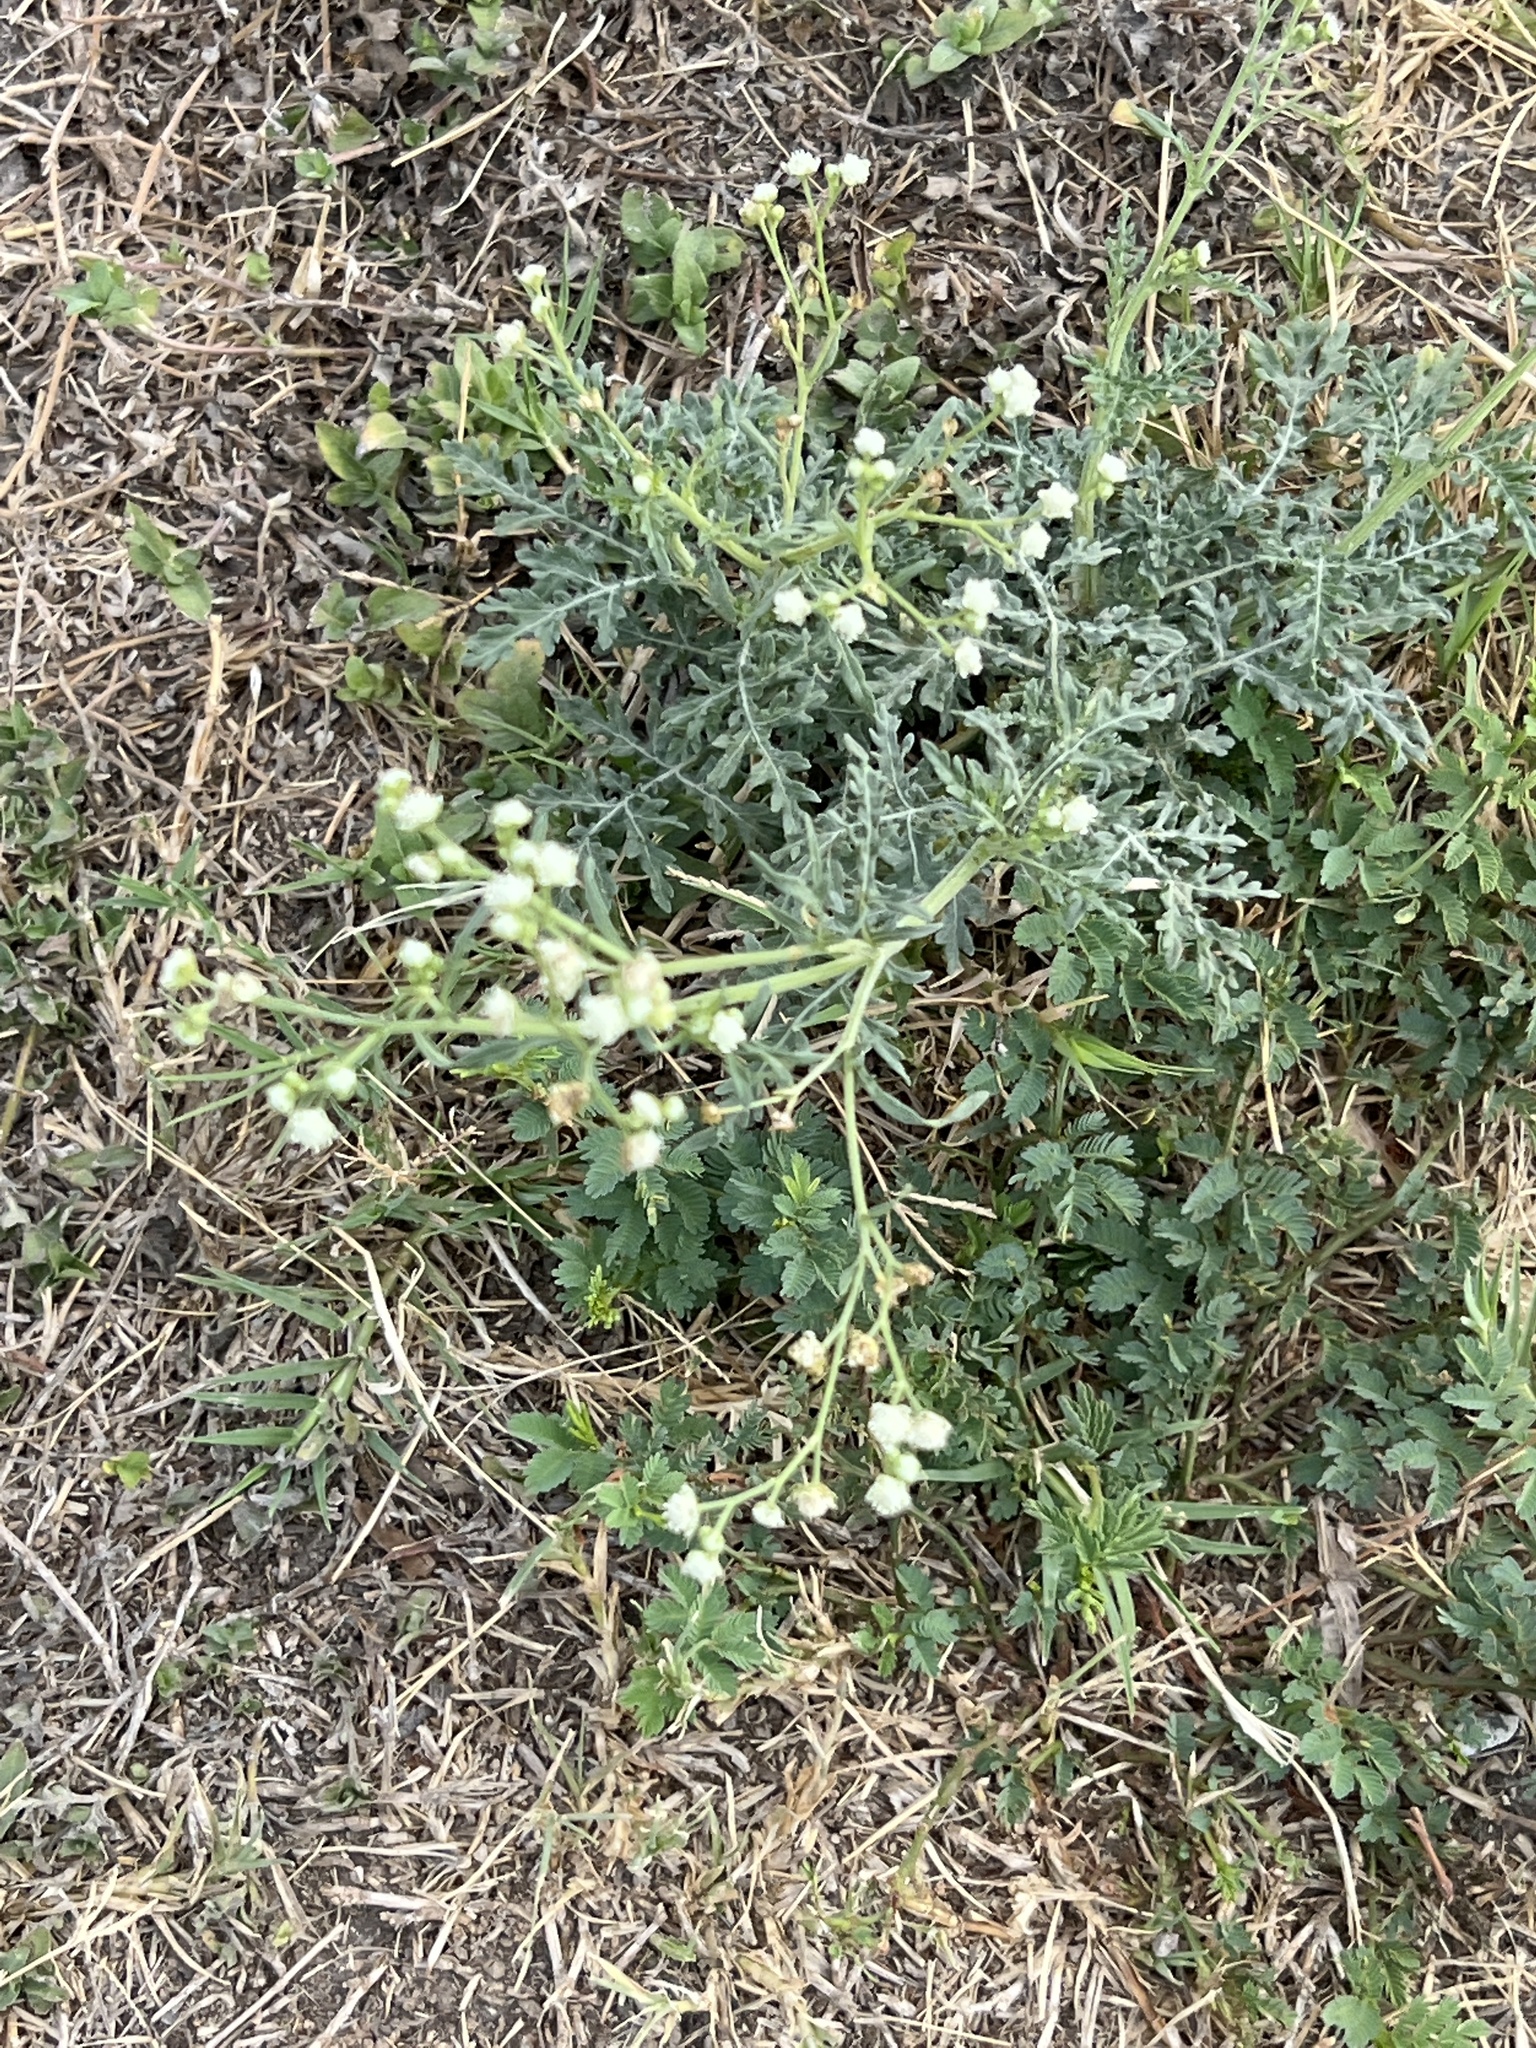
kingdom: Plantae
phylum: Tracheophyta
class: Magnoliopsida
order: Asterales
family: Asteraceae
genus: Parthenium
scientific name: Parthenium hysterophorus
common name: Santa maria feverfew
